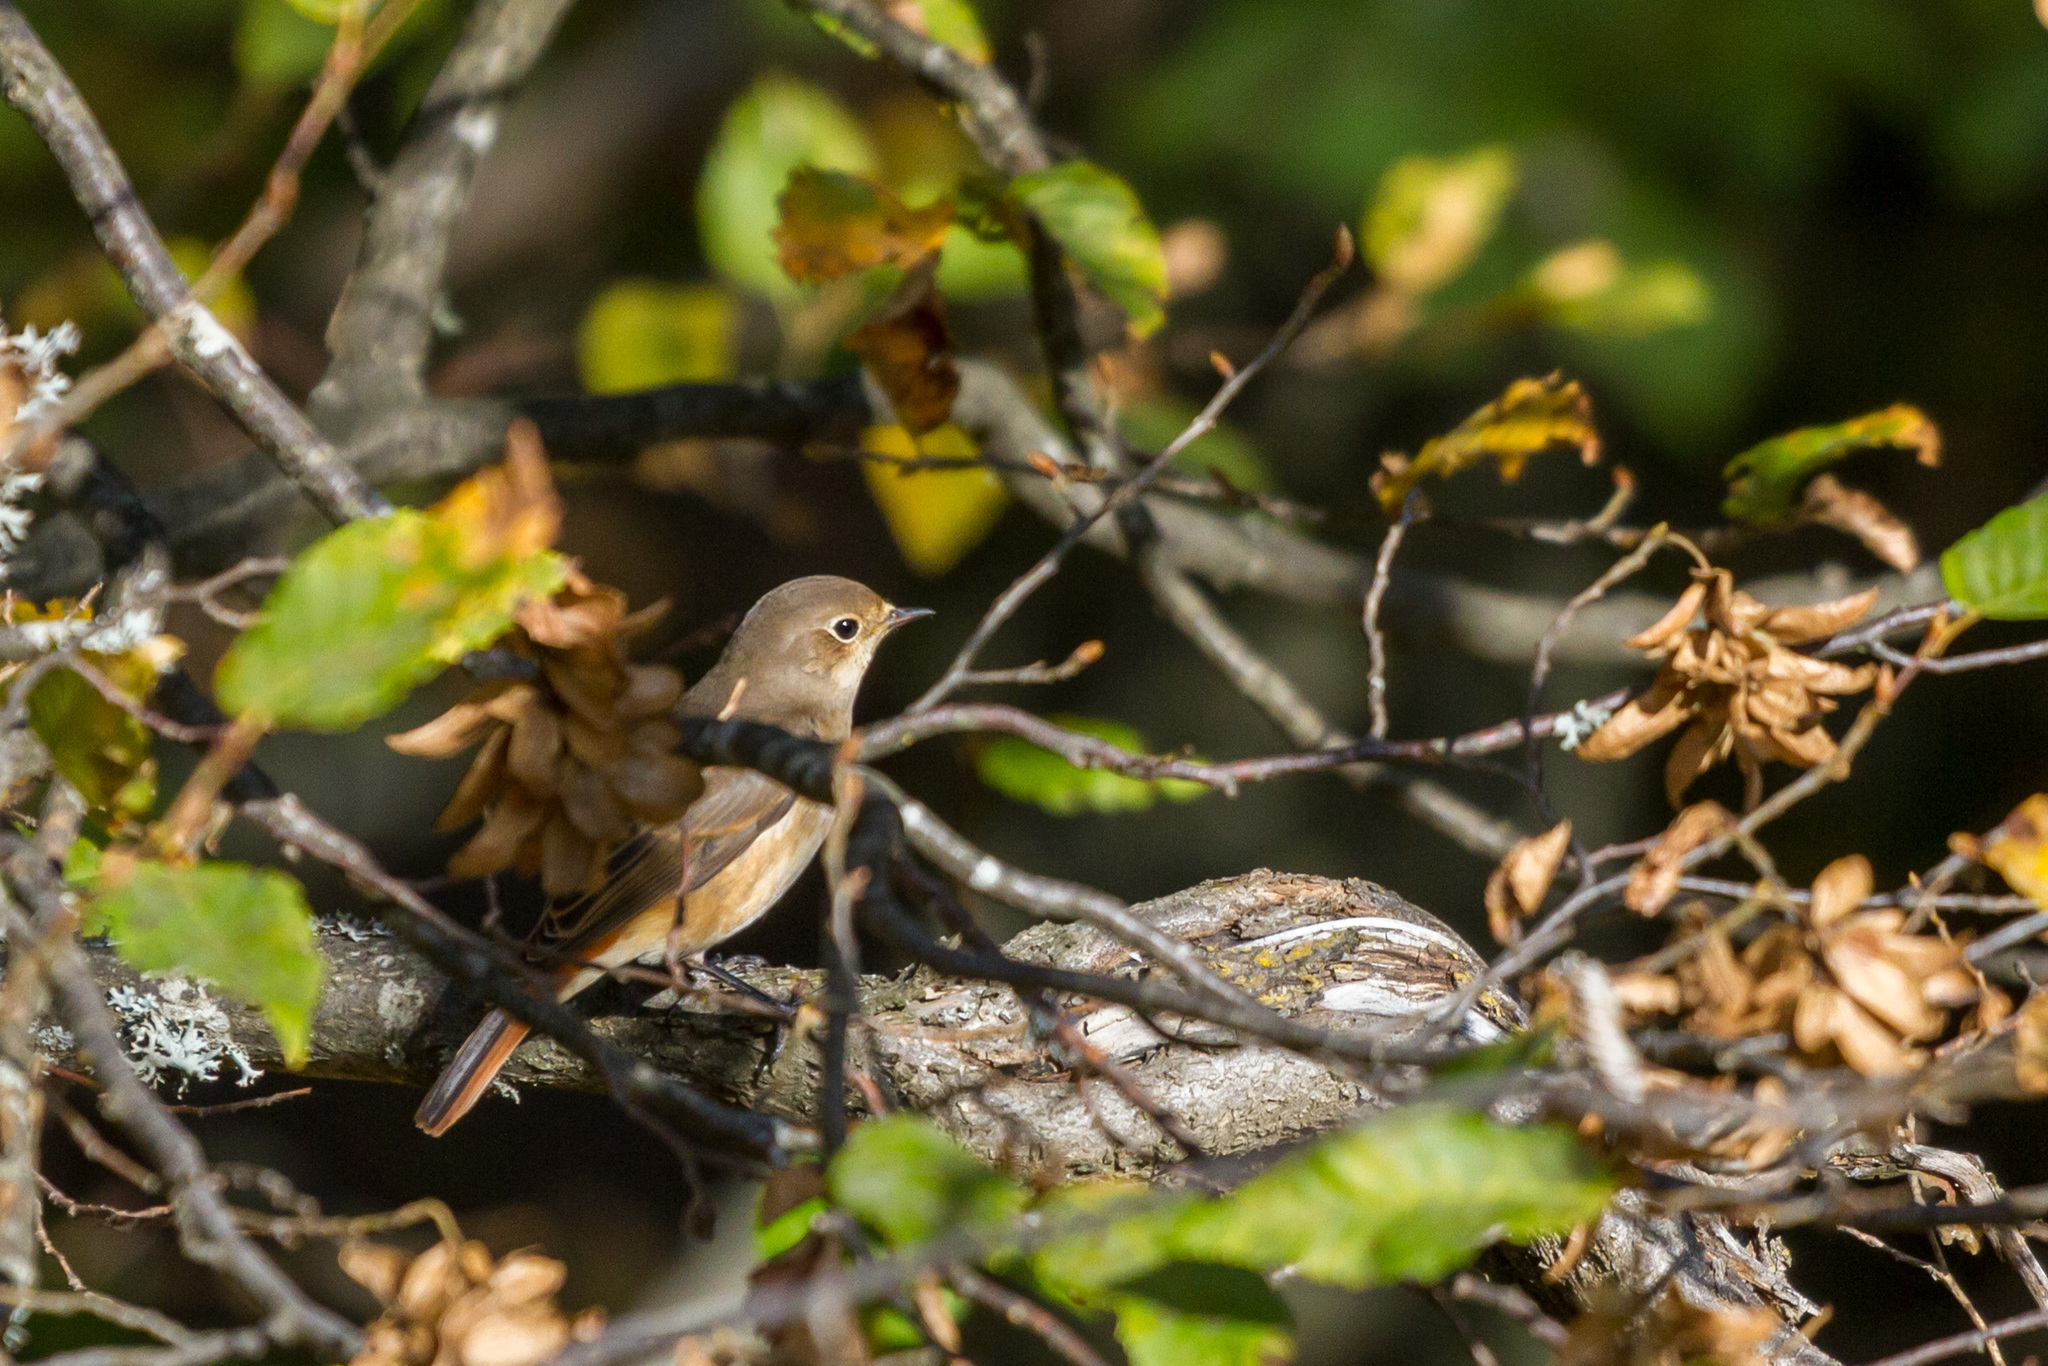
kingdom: Animalia
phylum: Chordata
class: Aves
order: Passeriformes
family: Muscicapidae
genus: Phoenicurus
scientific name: Phoenicurus phoenicurus
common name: Common redstart
